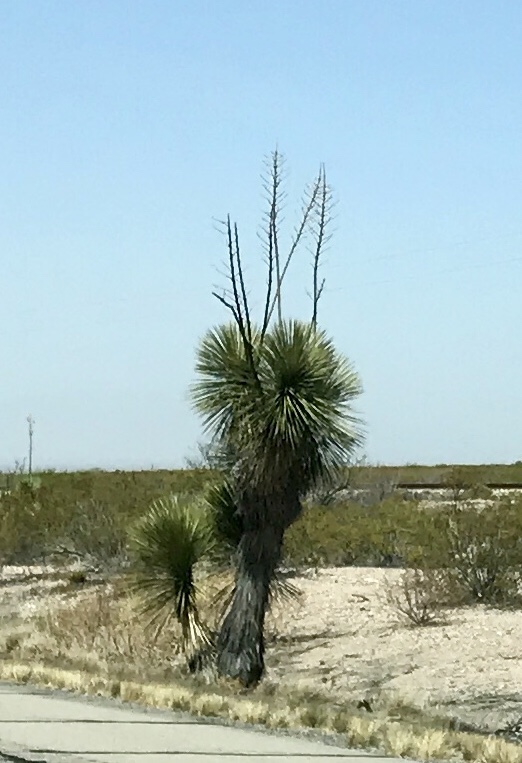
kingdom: Plantae
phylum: Tracheophyta
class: Liliopsida
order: Asparagales
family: Asparagaceae
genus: Yucca
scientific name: Yucca elata
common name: Palmella
